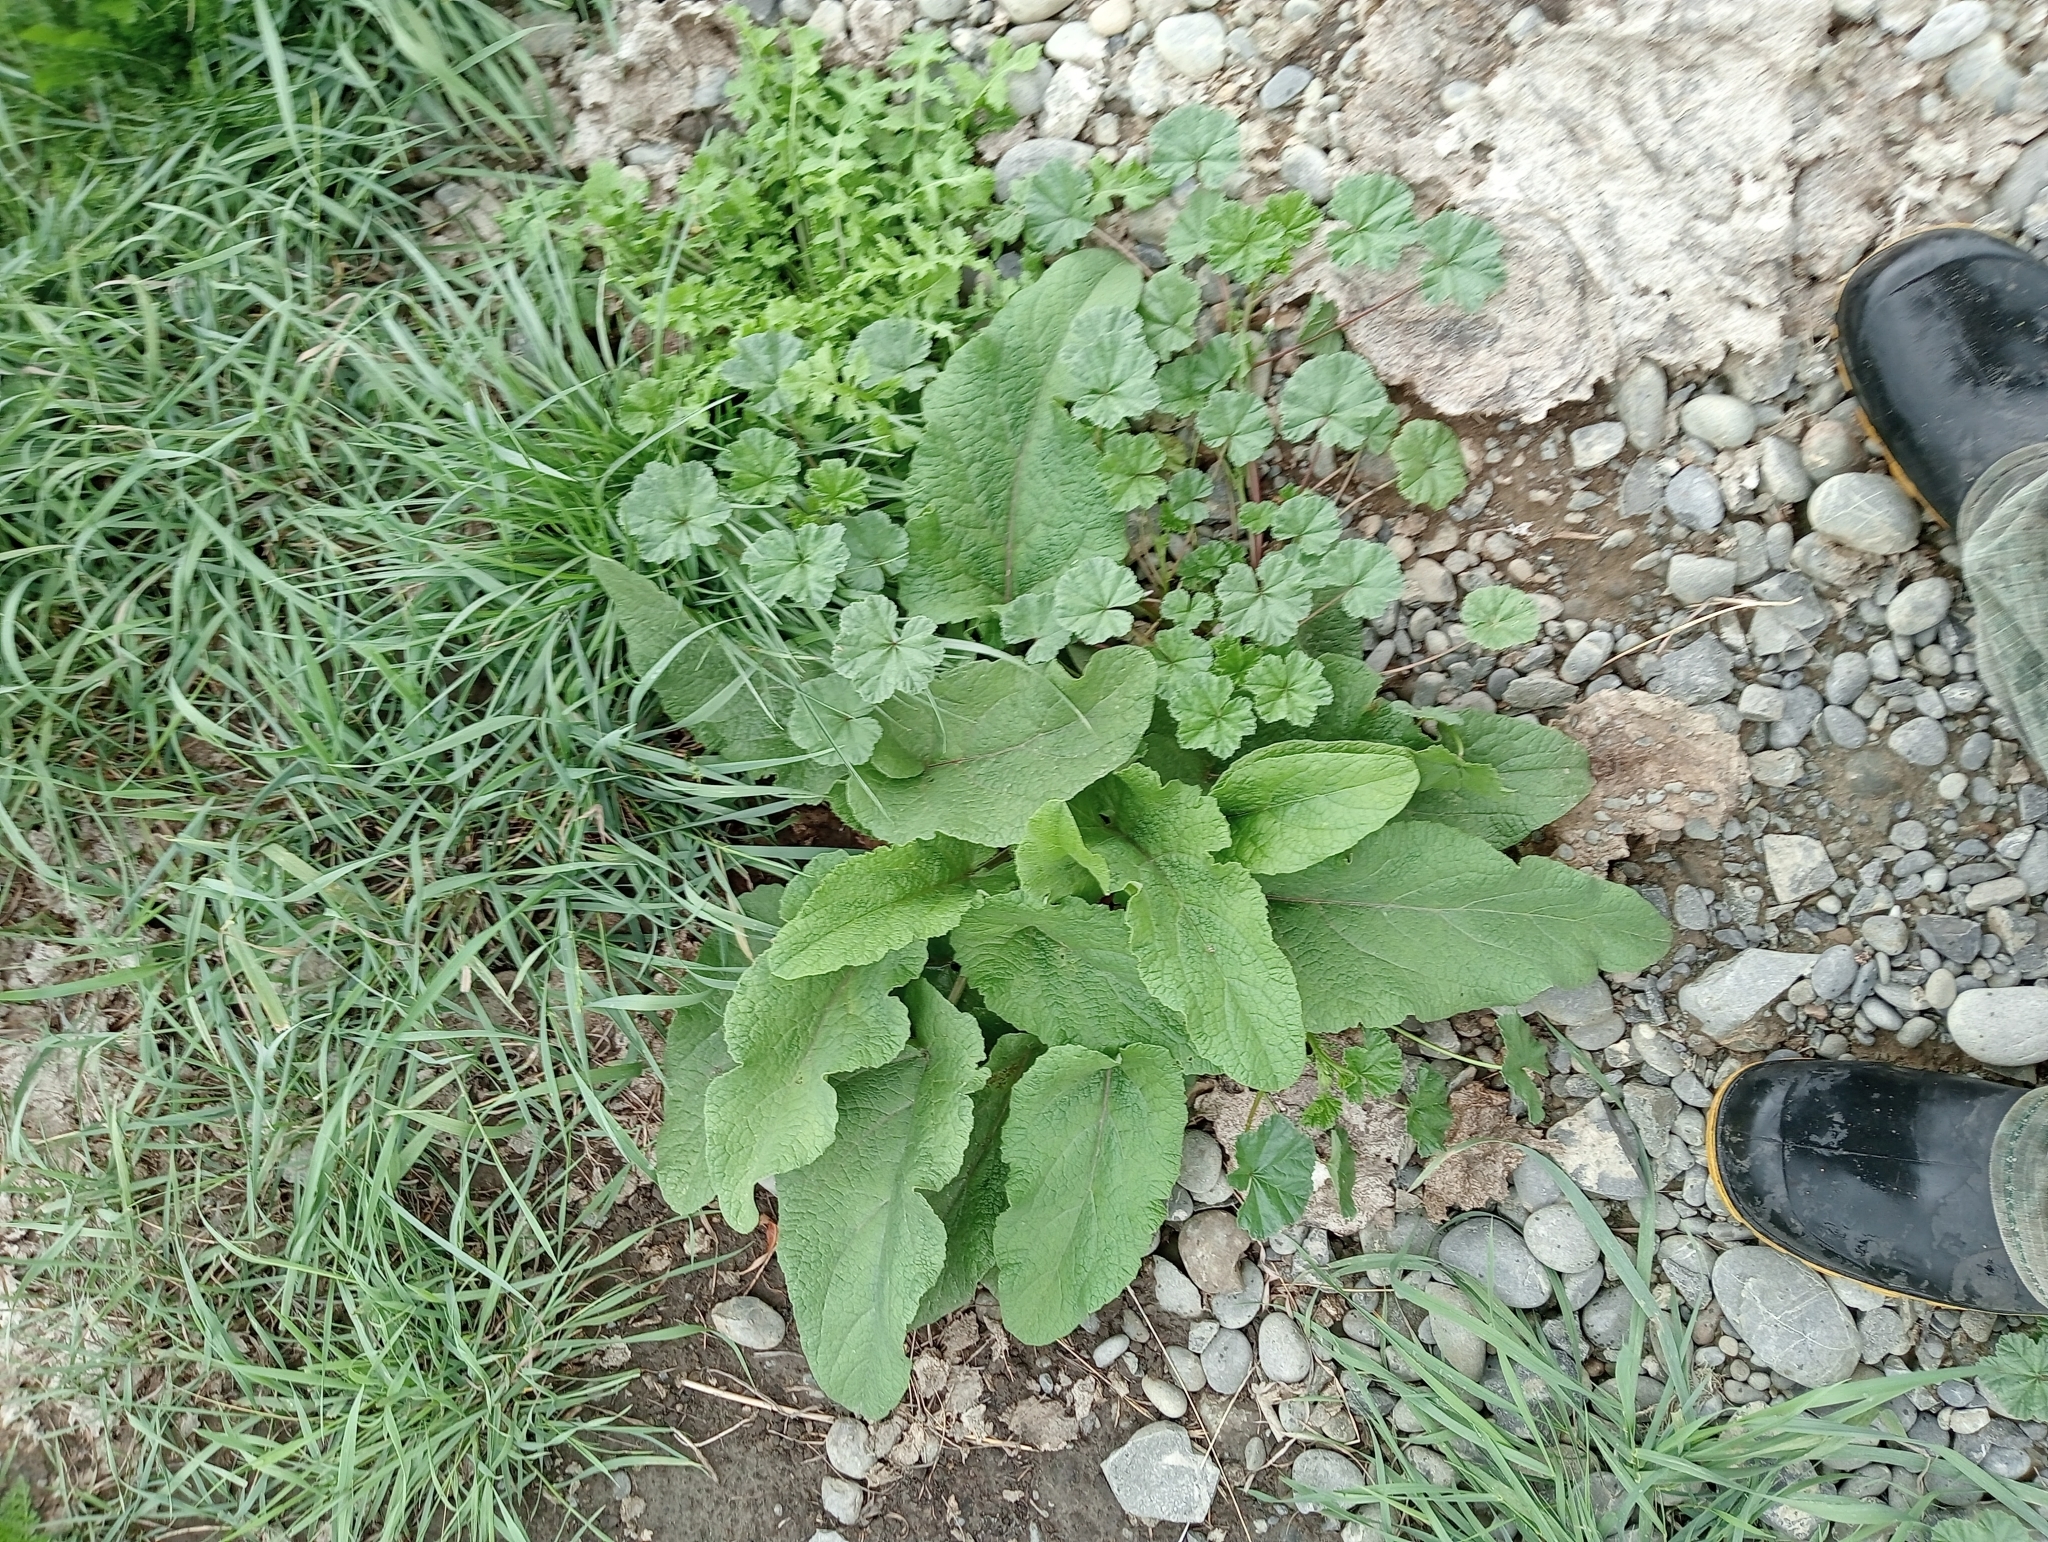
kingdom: Plantae
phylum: Tracheophyta
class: Magnoliopsida
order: Asterales
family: Asteraceae
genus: Arctium
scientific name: Arctium minus
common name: Lesser burdock
